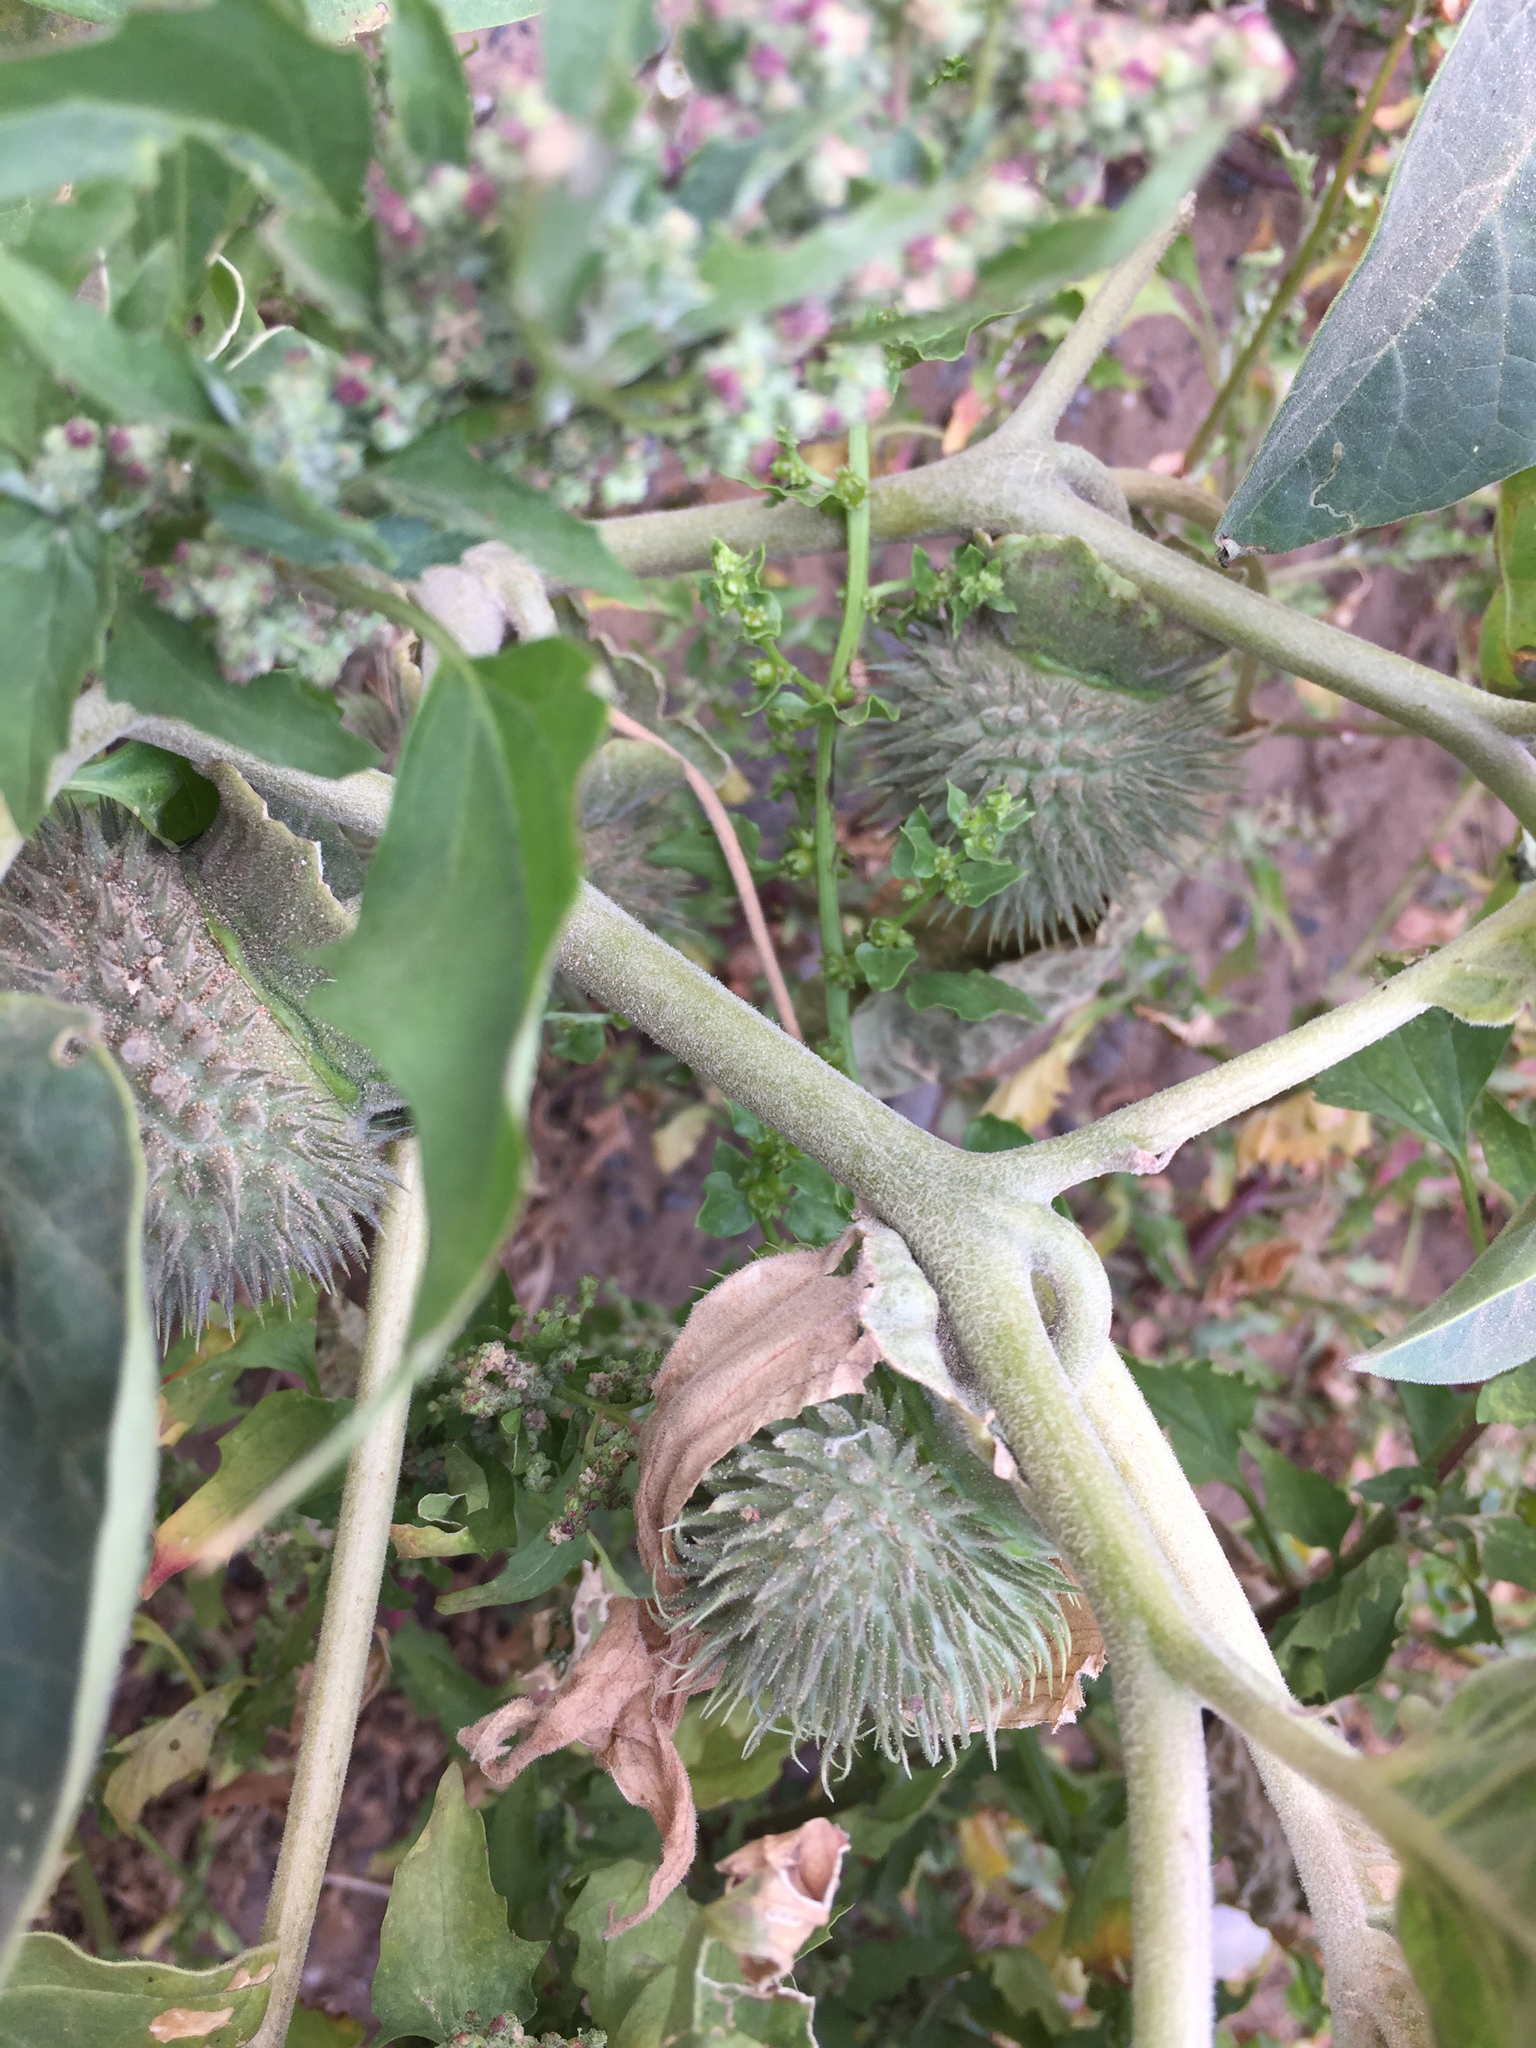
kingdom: Plantae
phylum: Tracheophyta
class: Magnoliopsida
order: Solanales
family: Solanaceae
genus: Datura
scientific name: Datura innoxia
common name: Downy thorn-apple
